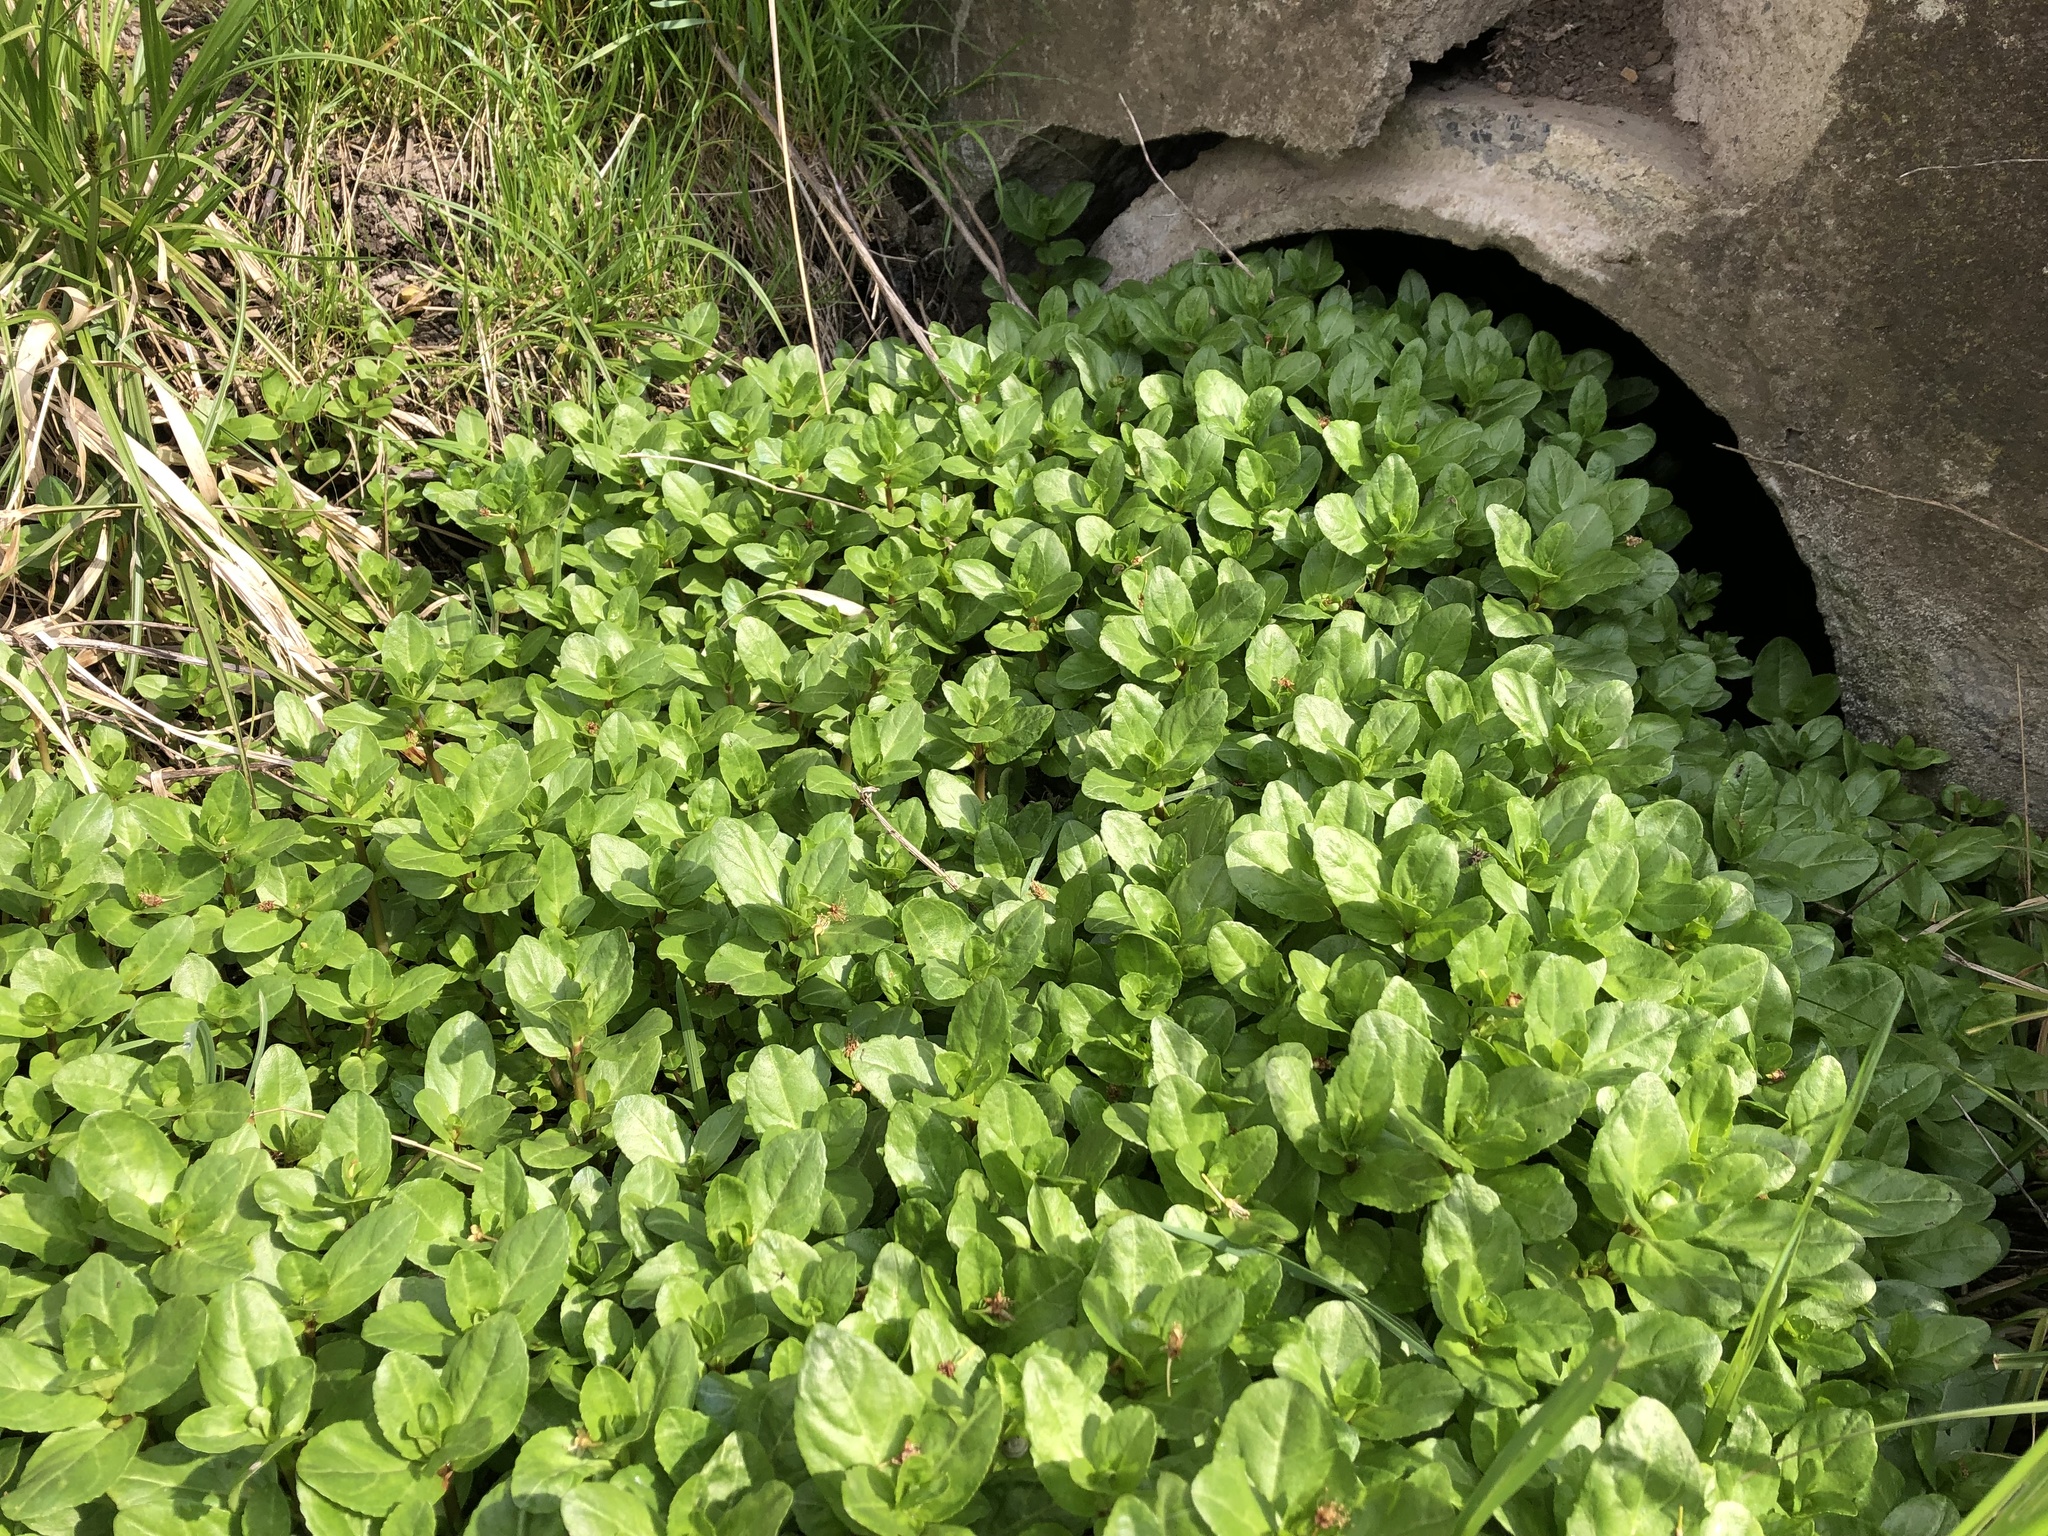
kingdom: Plantae
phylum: Tracheophyta
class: Magnoliopsida
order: Lamiales
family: Plantaginaceae
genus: Veronica
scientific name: Veronica beccabunga
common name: Brooklime
